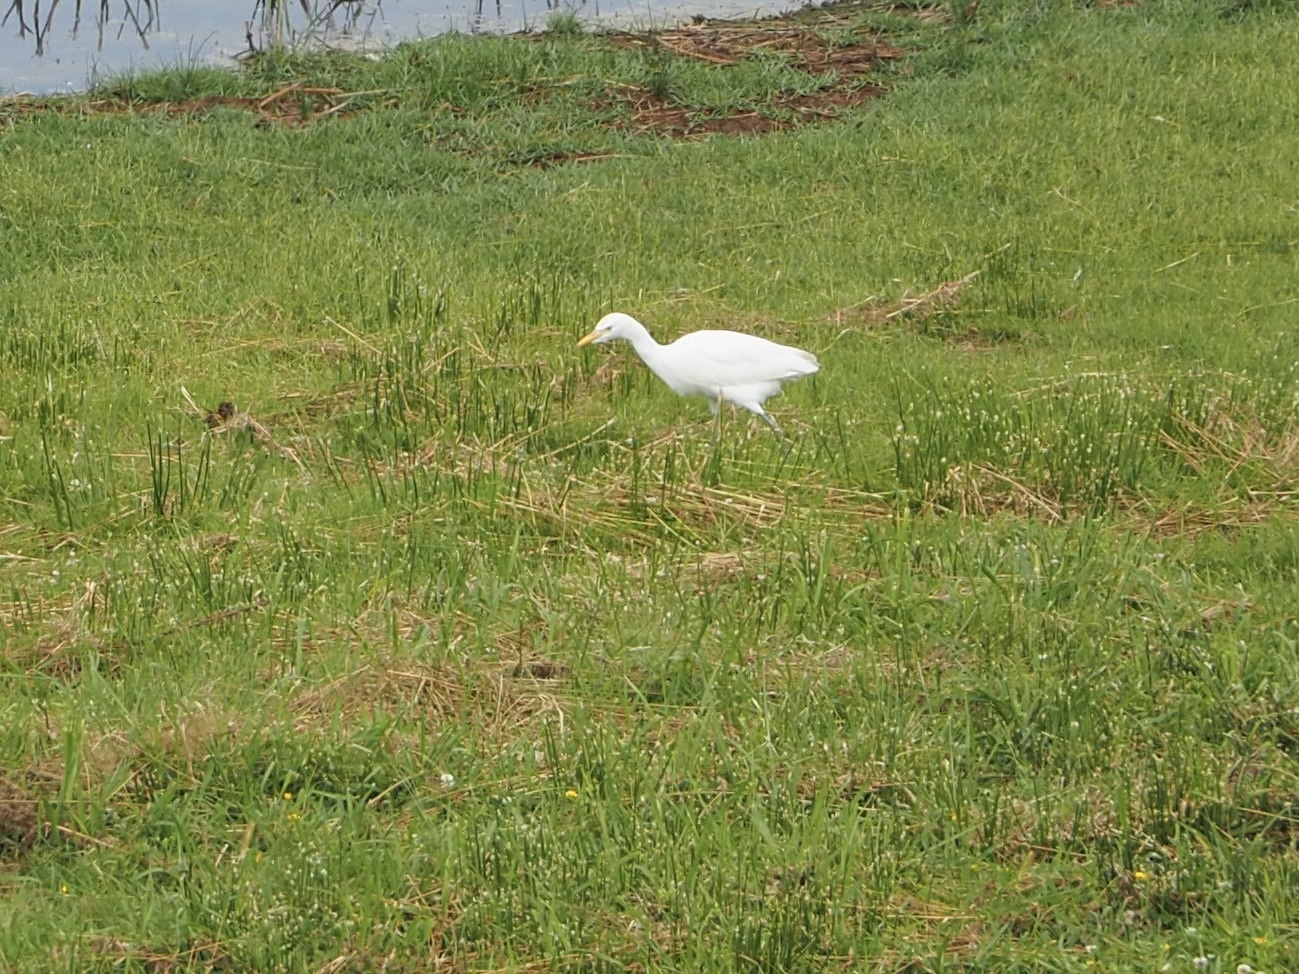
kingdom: Animalia
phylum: Chordata
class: Aves
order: Pelecaniformes
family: Ardeidae
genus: Bubulcus
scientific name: Bubulcus ibis
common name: Cattle egret
